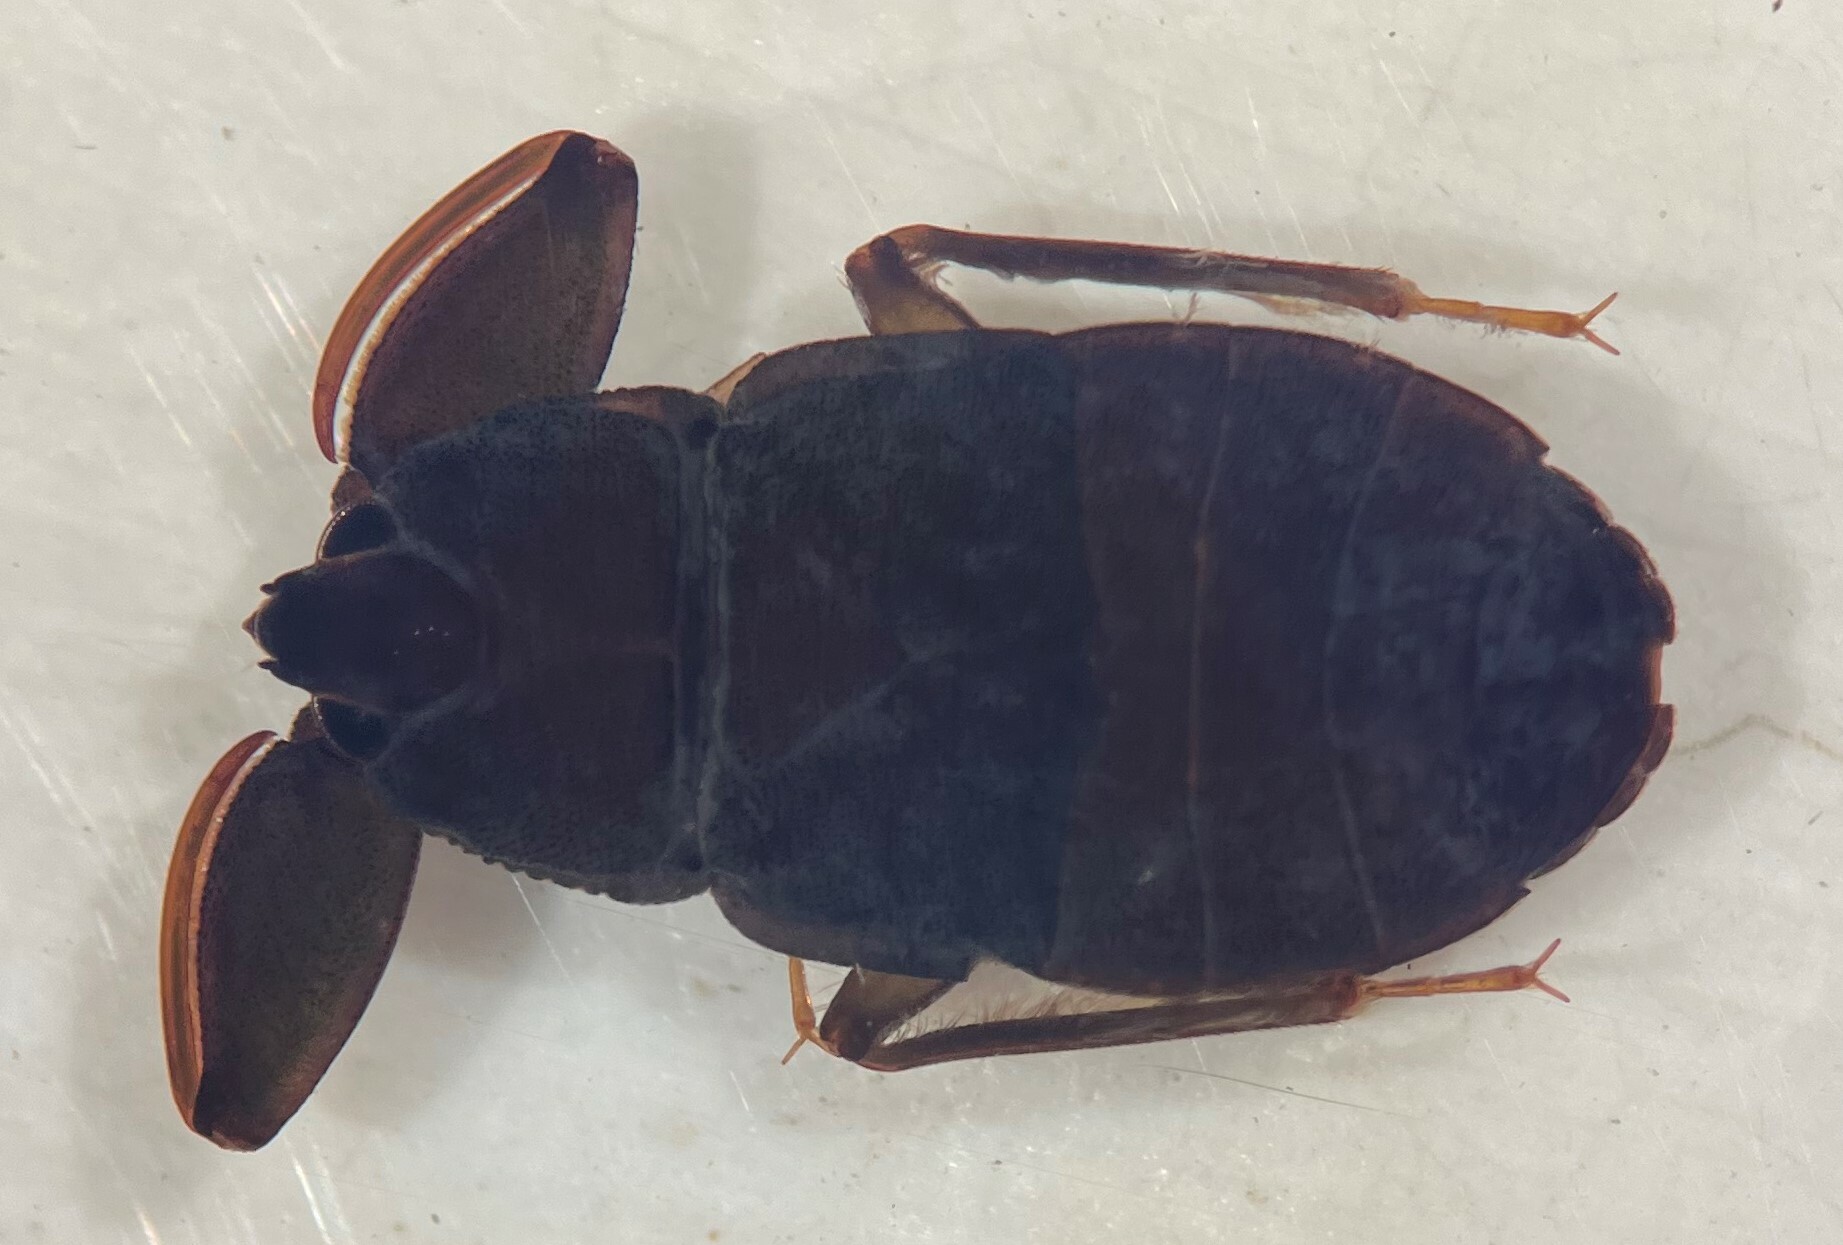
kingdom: Animalia
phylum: Arthropoda
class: Insecta
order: Hemiptera
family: Naucoridae
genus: Cryphocricos
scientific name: Cryphocricos hungerfordi
